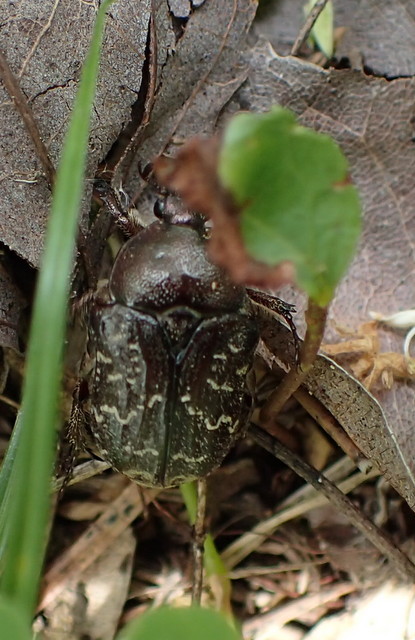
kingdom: Animalia
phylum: Arthropoda
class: Insecta
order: Coleoptera
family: Scarabaeidae
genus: Euphoria
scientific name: Euphoria sepulcralis
